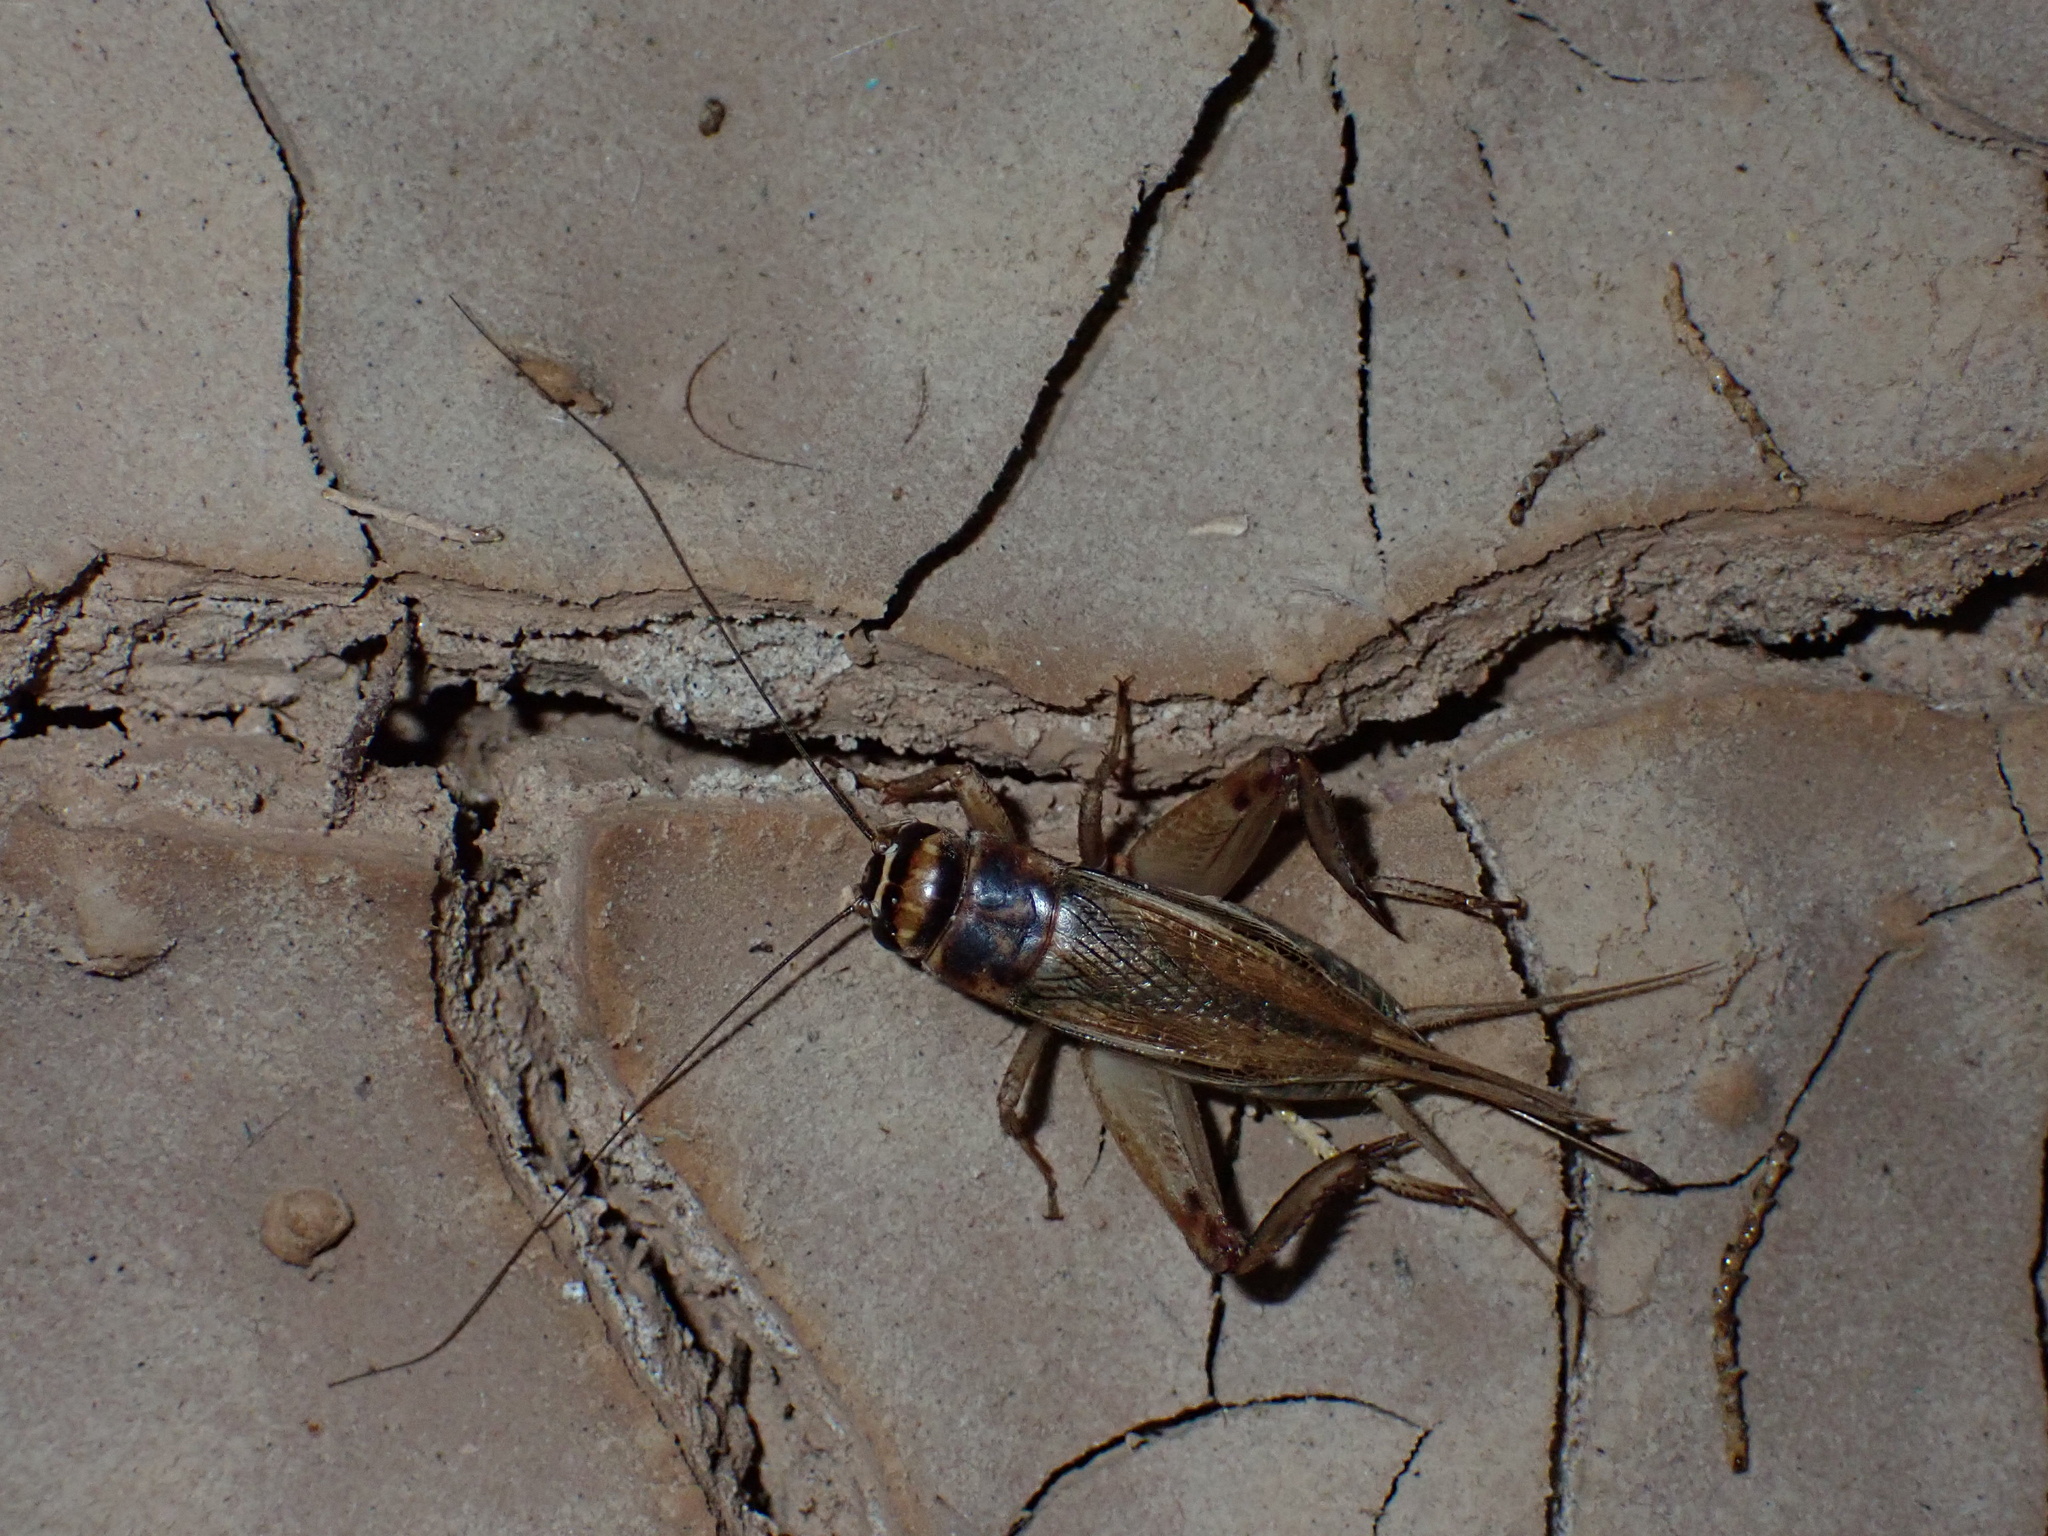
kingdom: Animalia
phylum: Arthropoda
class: Insecta
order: Orthoptera
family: Gryllidae
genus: Acheta
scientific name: Acheta domesticus
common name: House cricket
